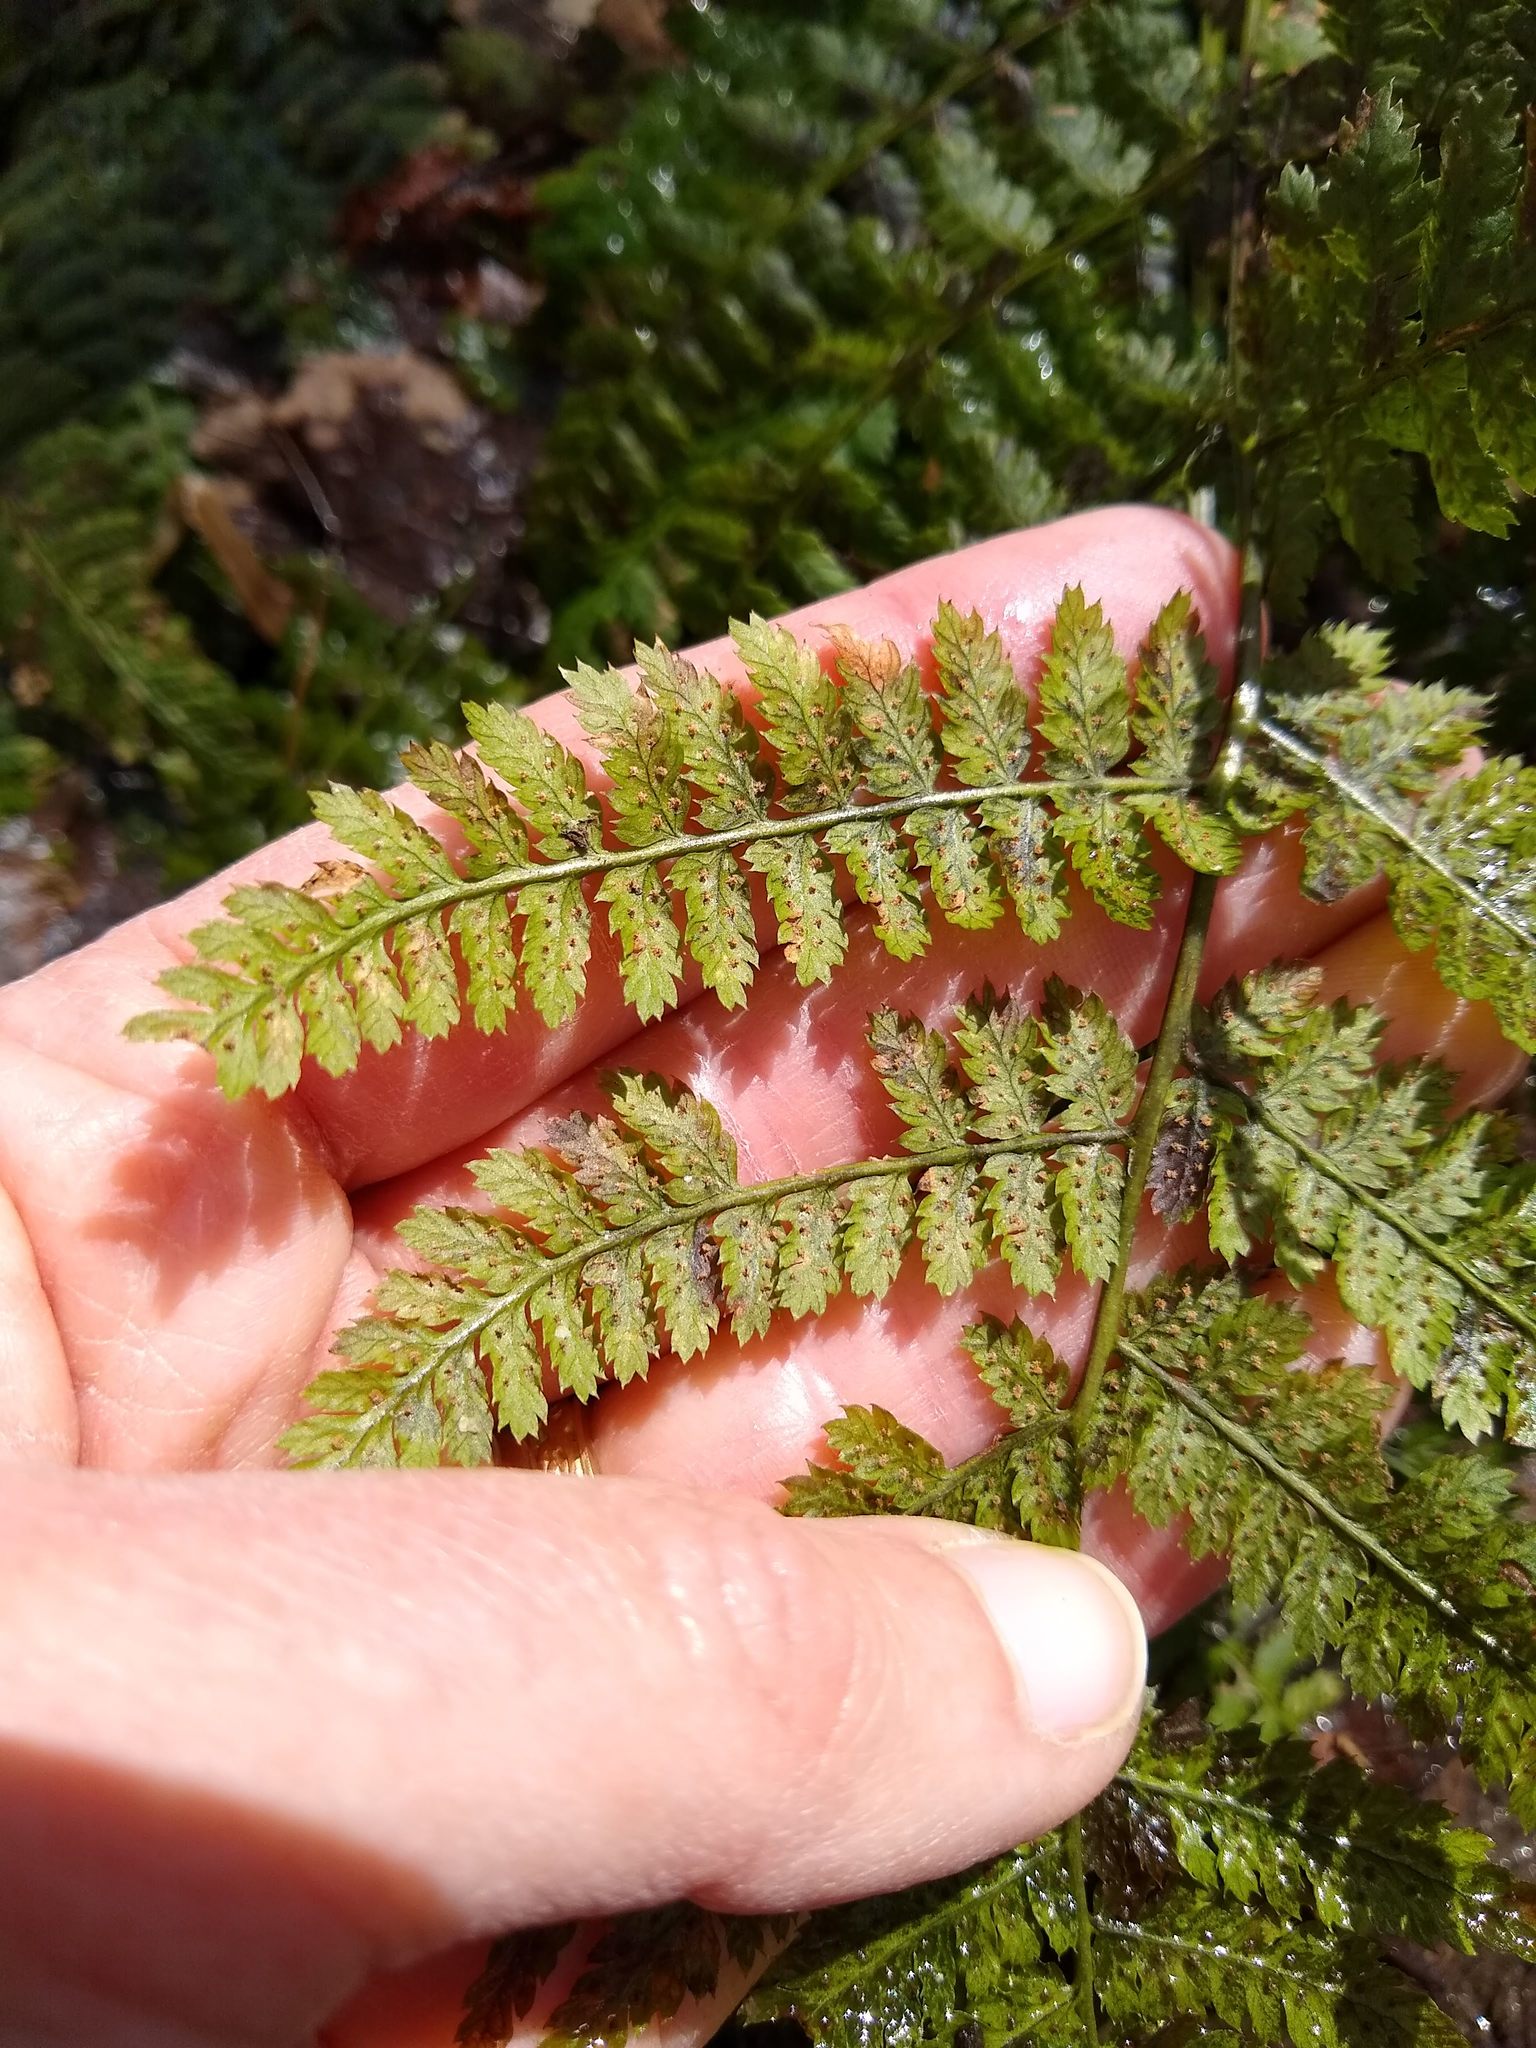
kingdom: Plantae
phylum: Tracheophyta
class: Polypodiopsida
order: Polypodiales
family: Dryopteridaceae
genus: Dryopteris
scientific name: Dryopteris intermedia
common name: Evergreen wood fern
